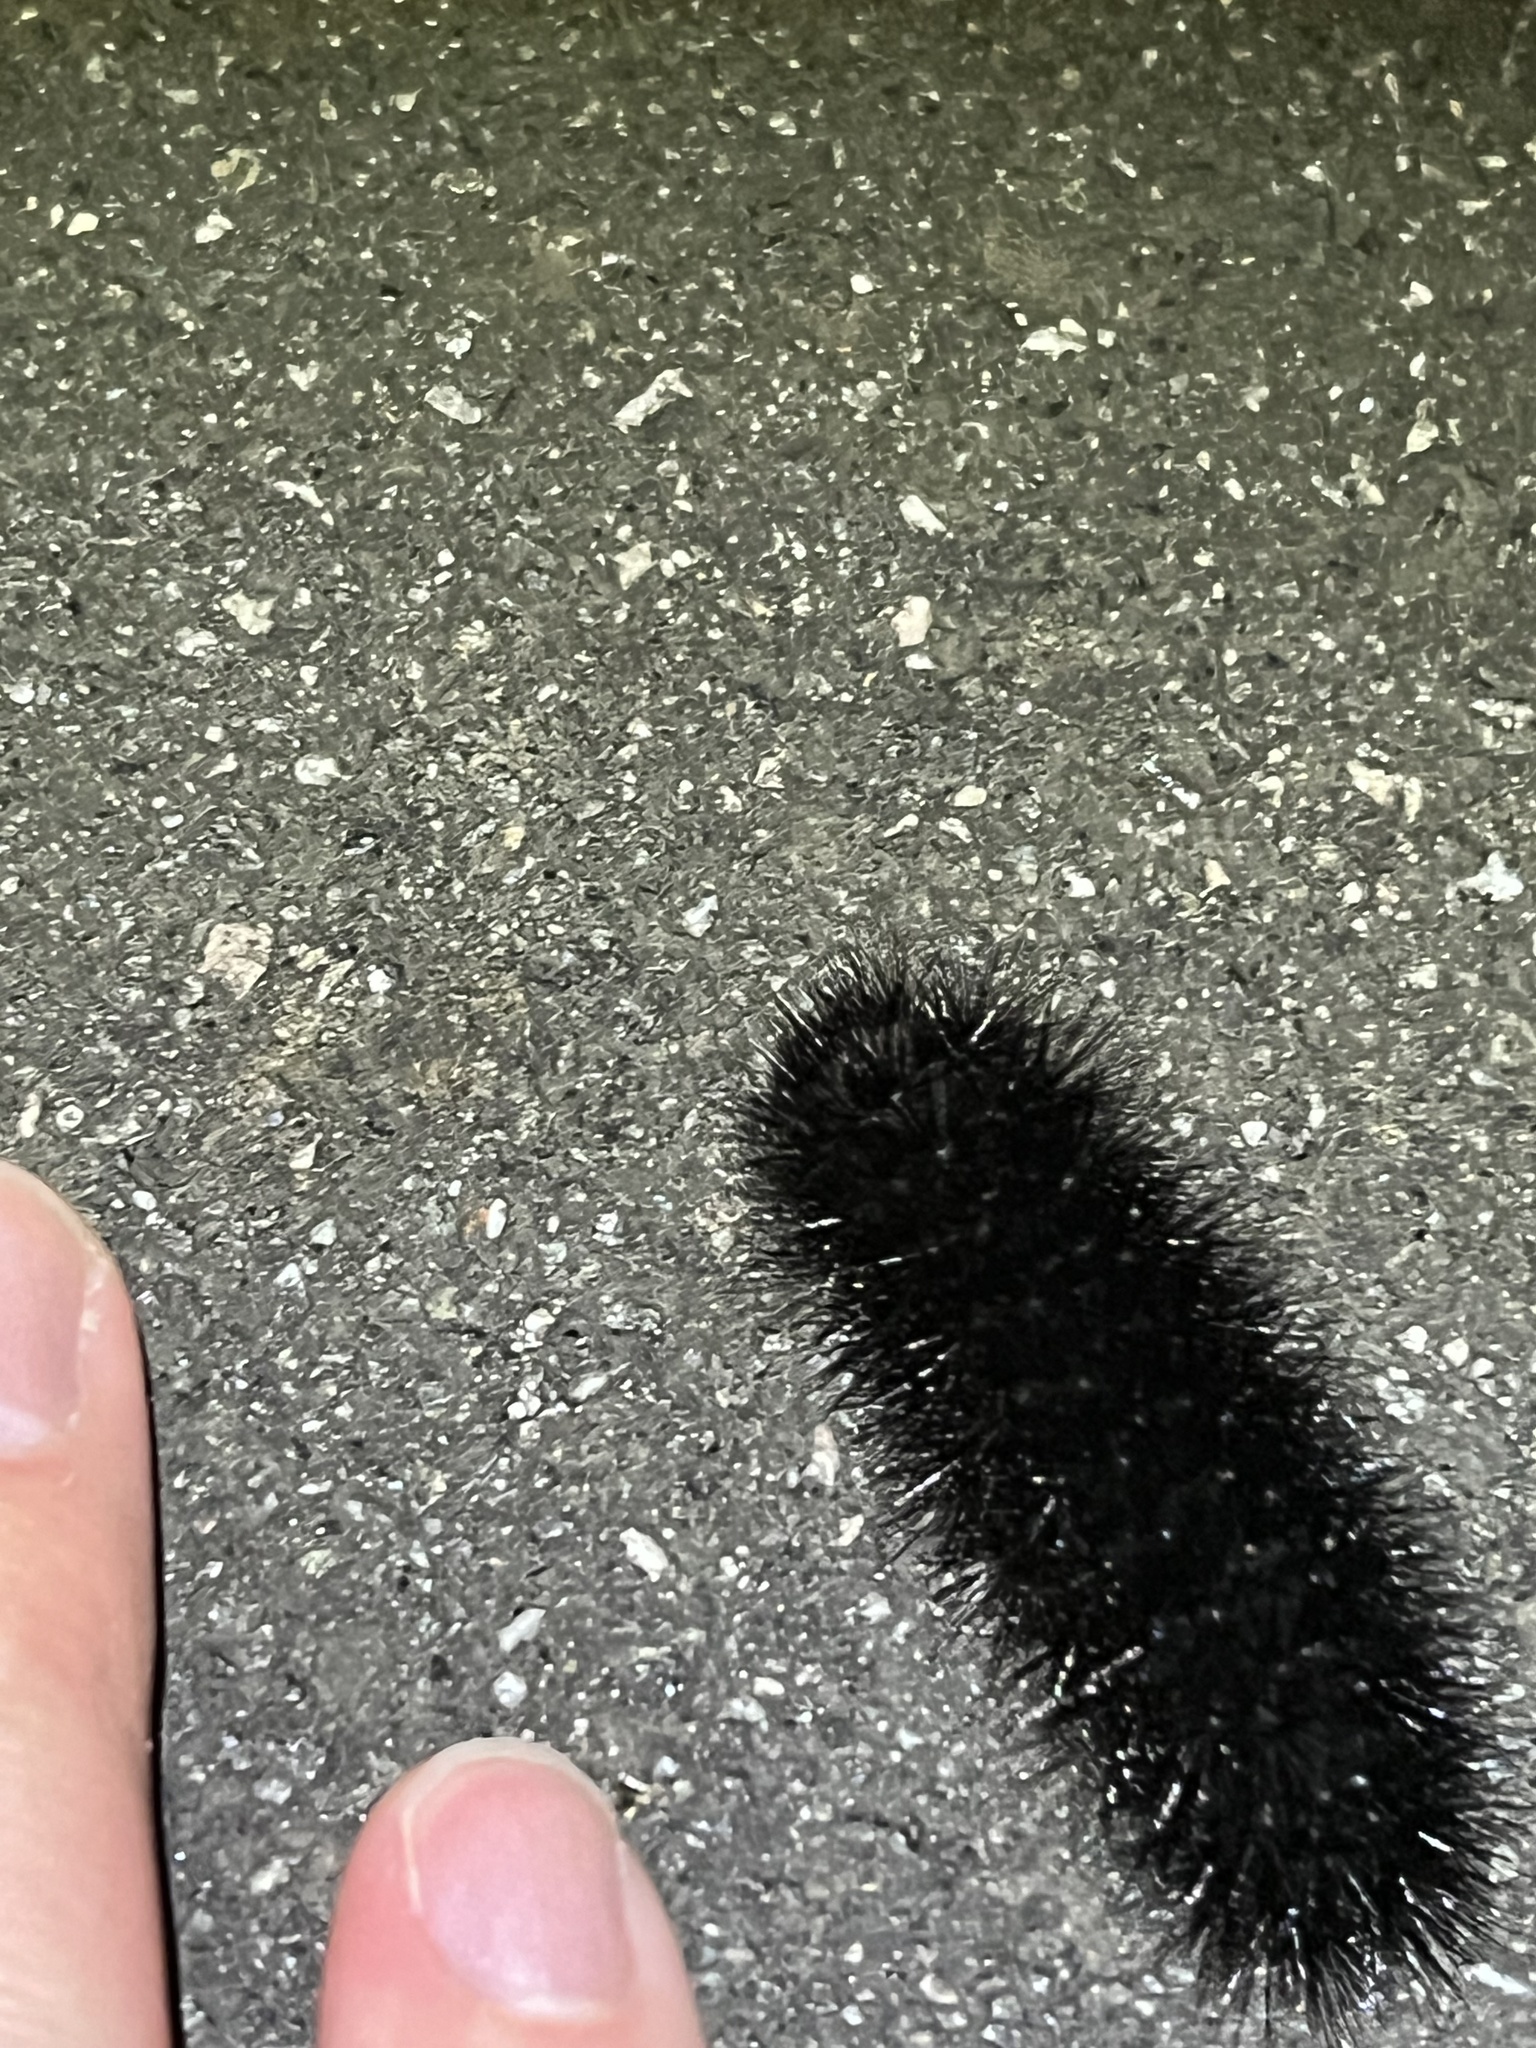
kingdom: Animalia
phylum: Arthropoda
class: Insecta
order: Lepidoptera
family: Erebidae
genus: Hypercompe
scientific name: Hypercompe scribonia
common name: Giant leopard moth
